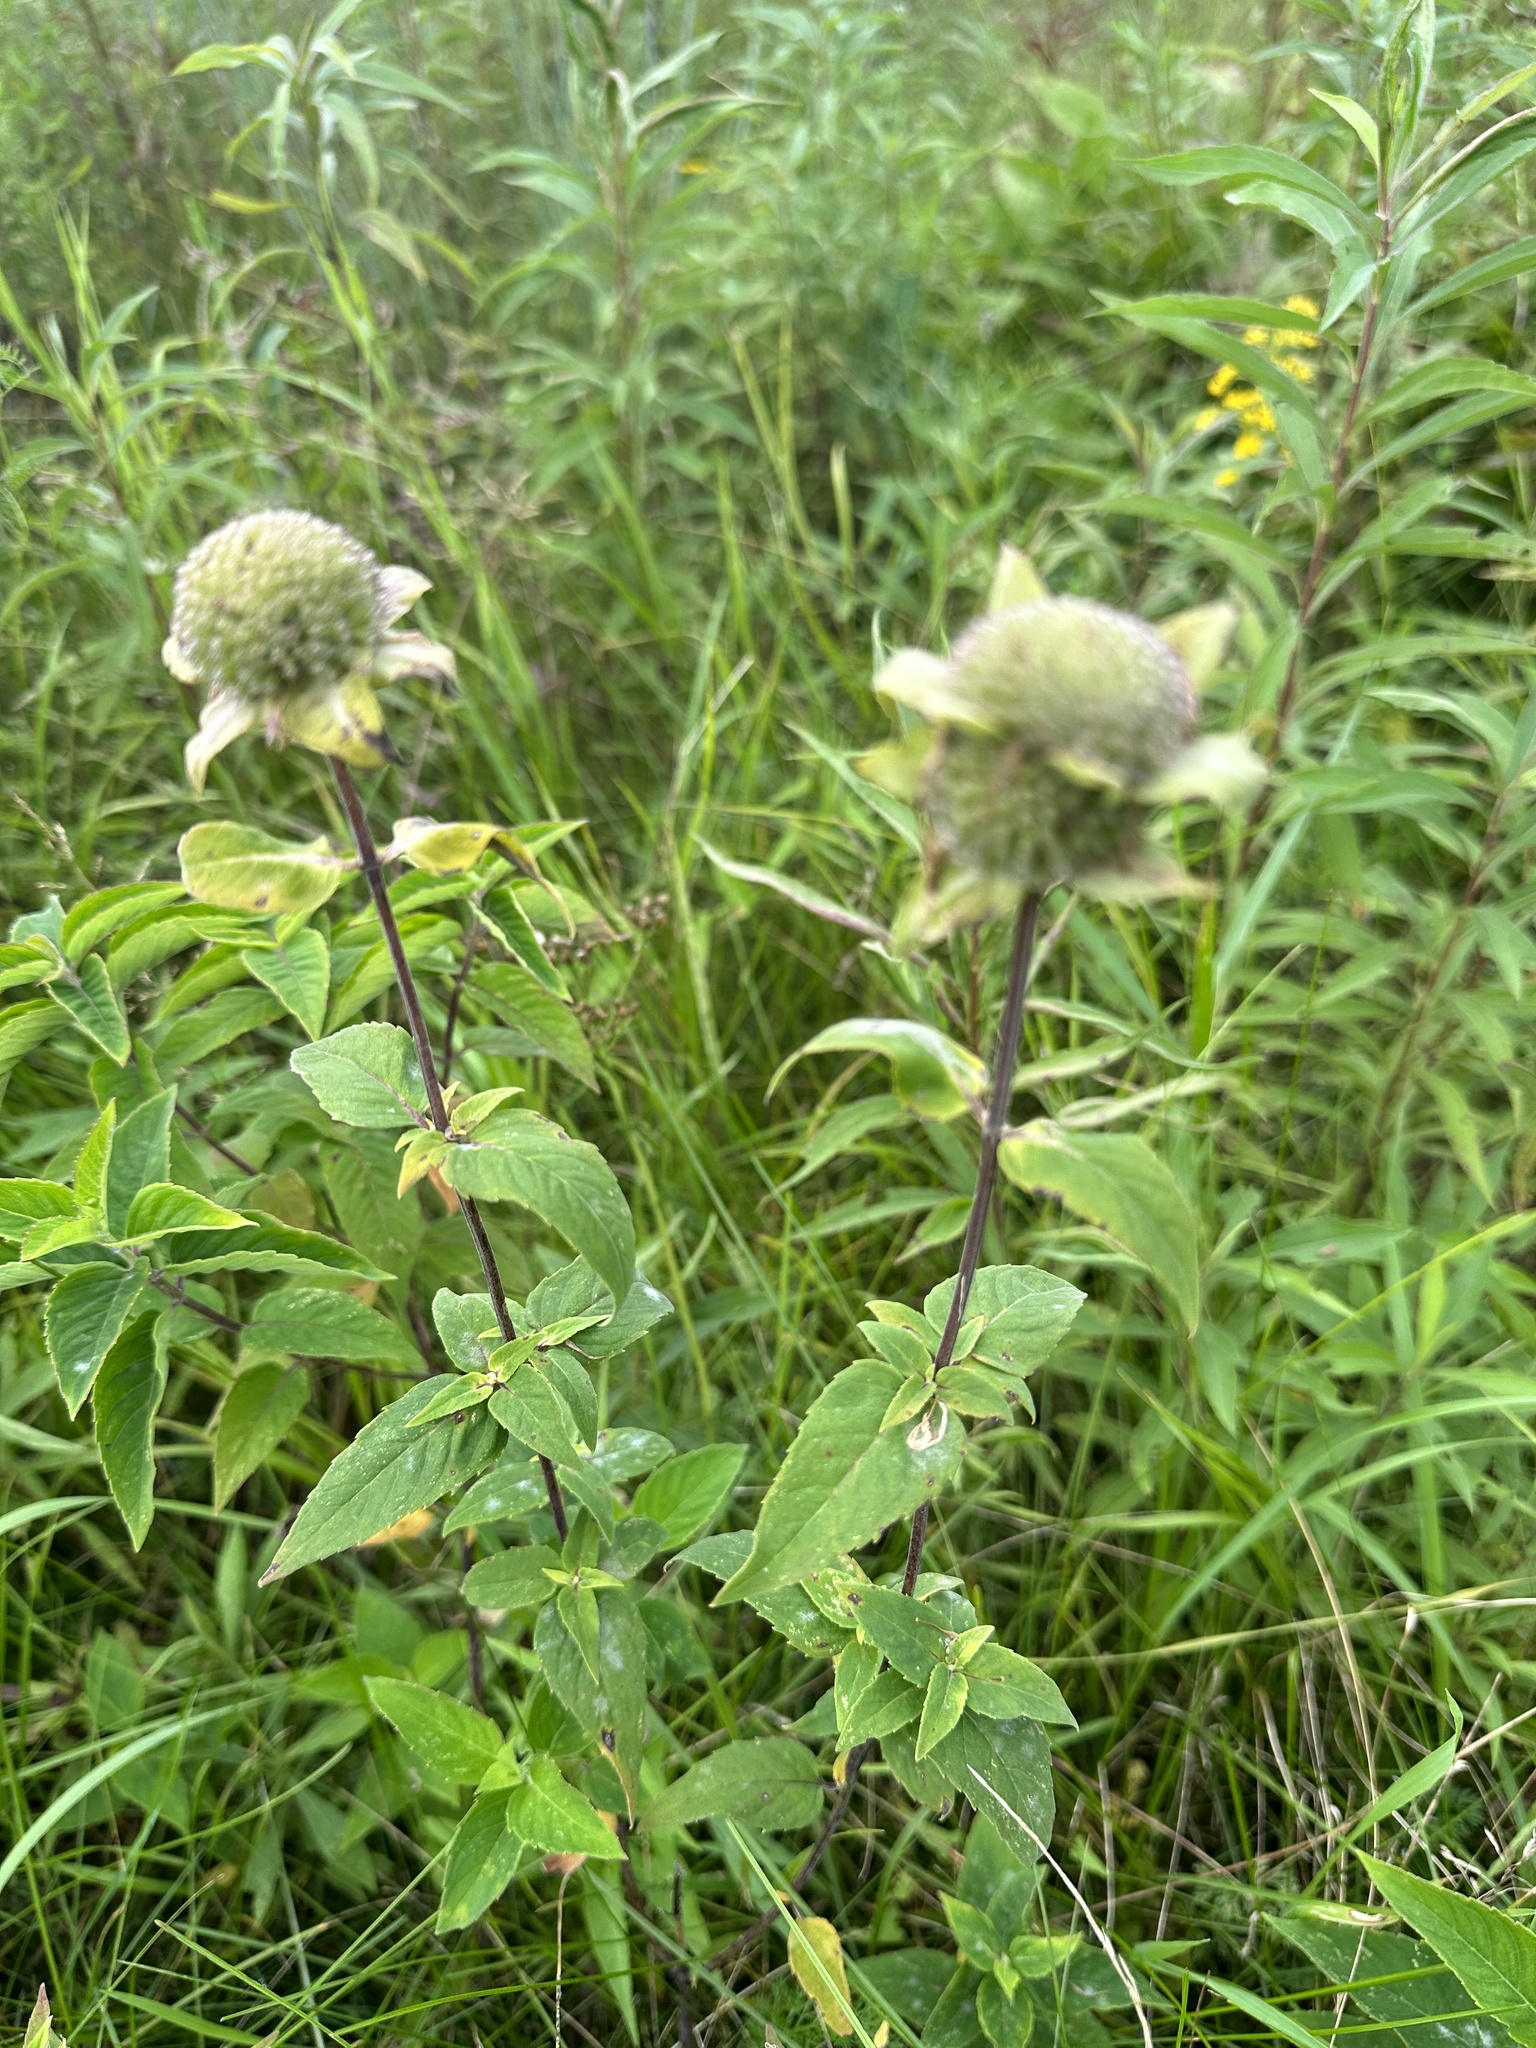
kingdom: Plantae
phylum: Tracheophyta
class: Magnoliopsida
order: Lamiales
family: Lamiaceae
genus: Monarda
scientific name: Monarda fistulosa
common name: Purple beebalm
